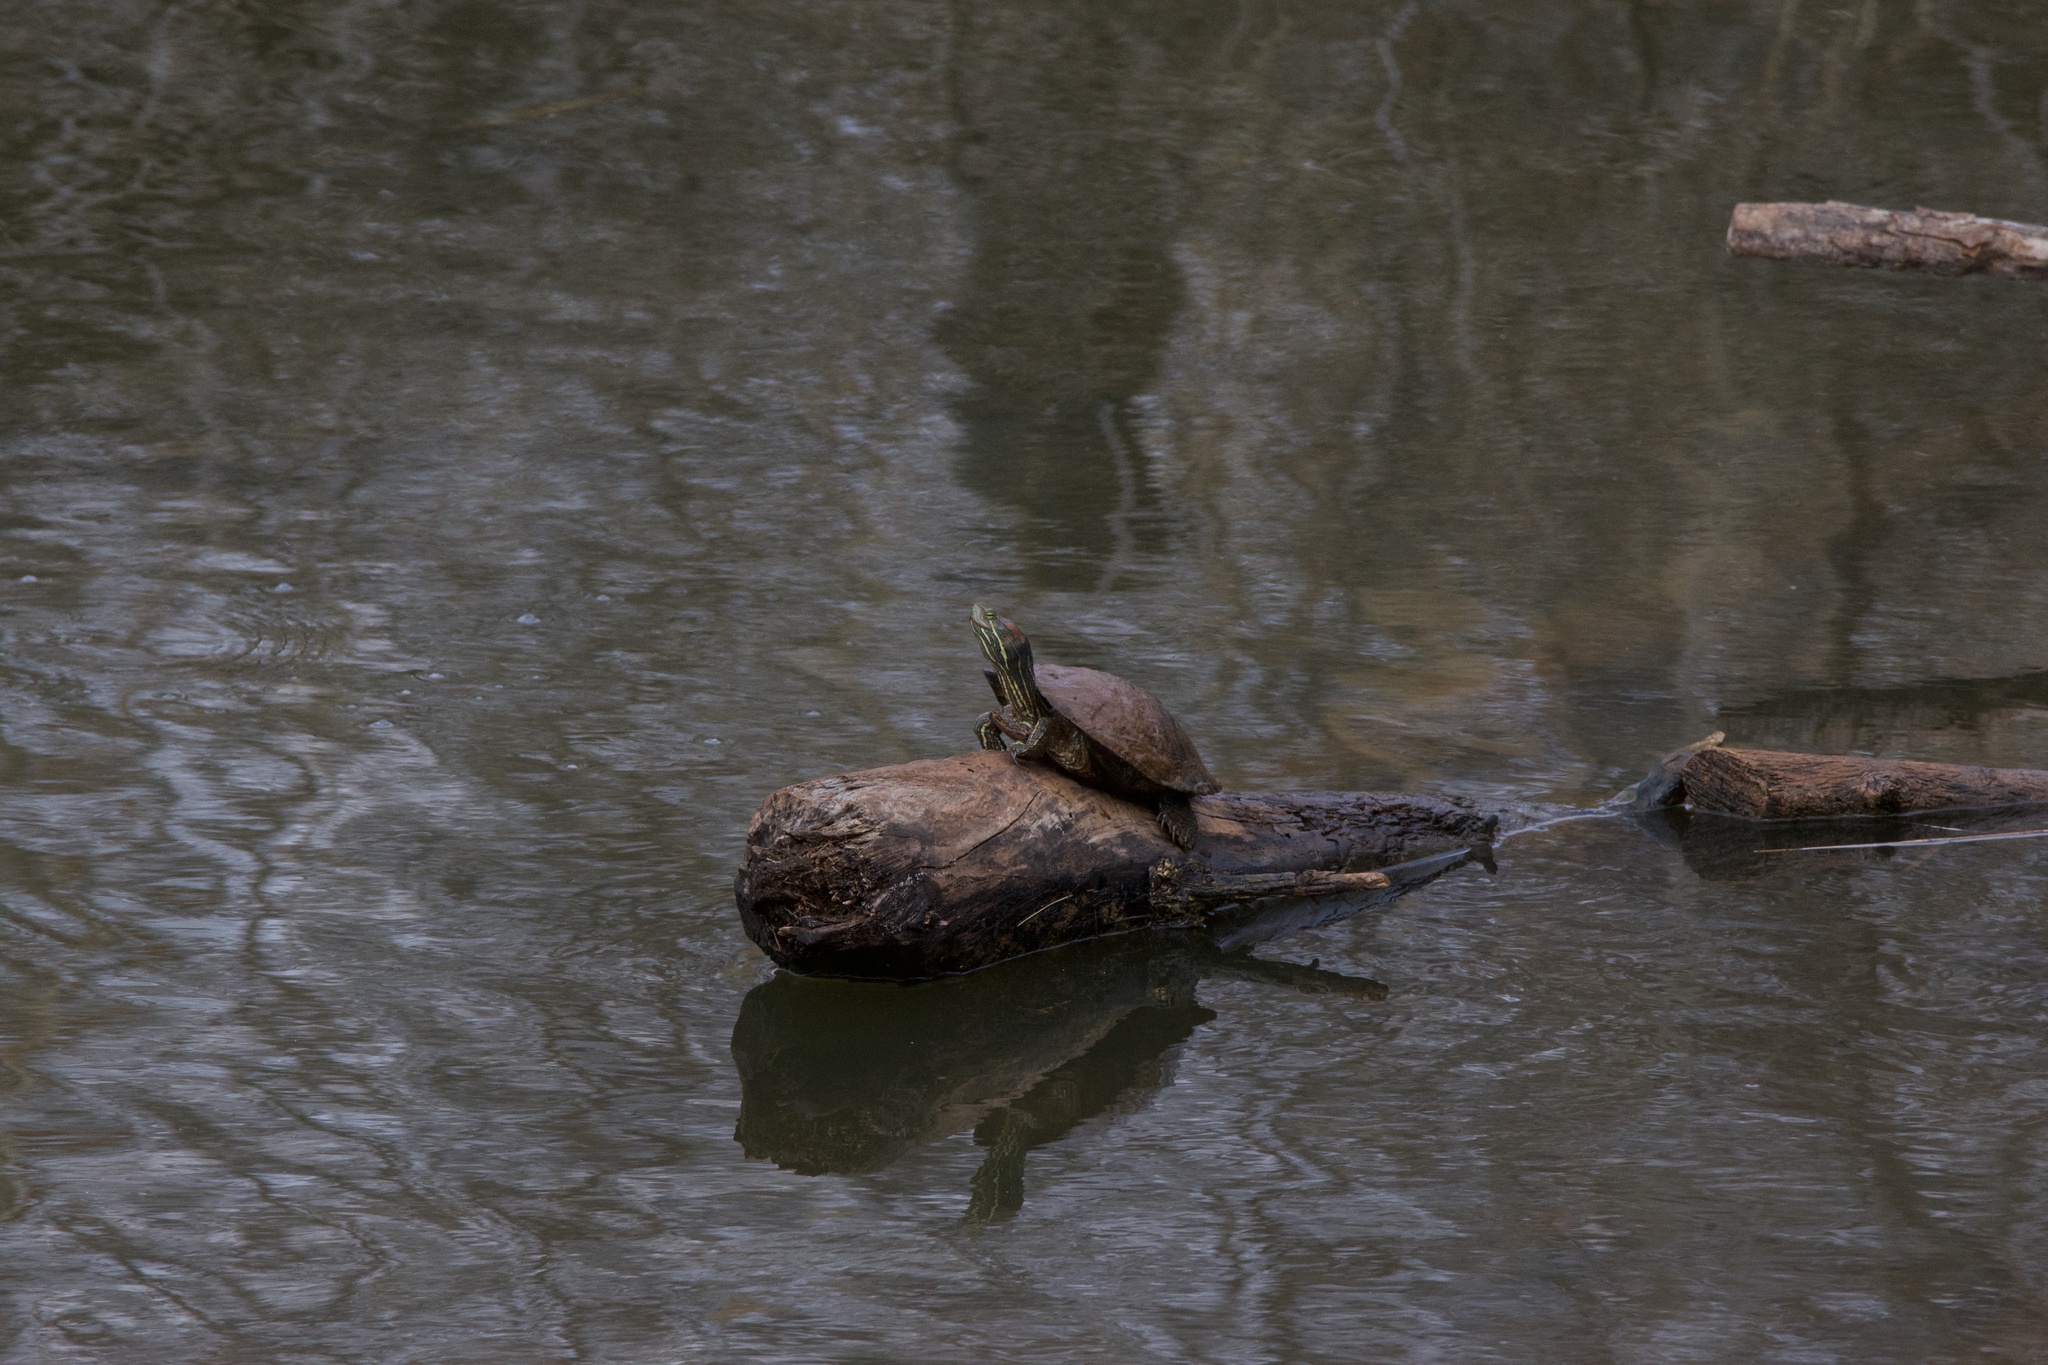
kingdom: Animalia
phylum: Chordata
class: Testudines
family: Emydidae
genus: Trachemys
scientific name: Trachemys scripta
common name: Slider
